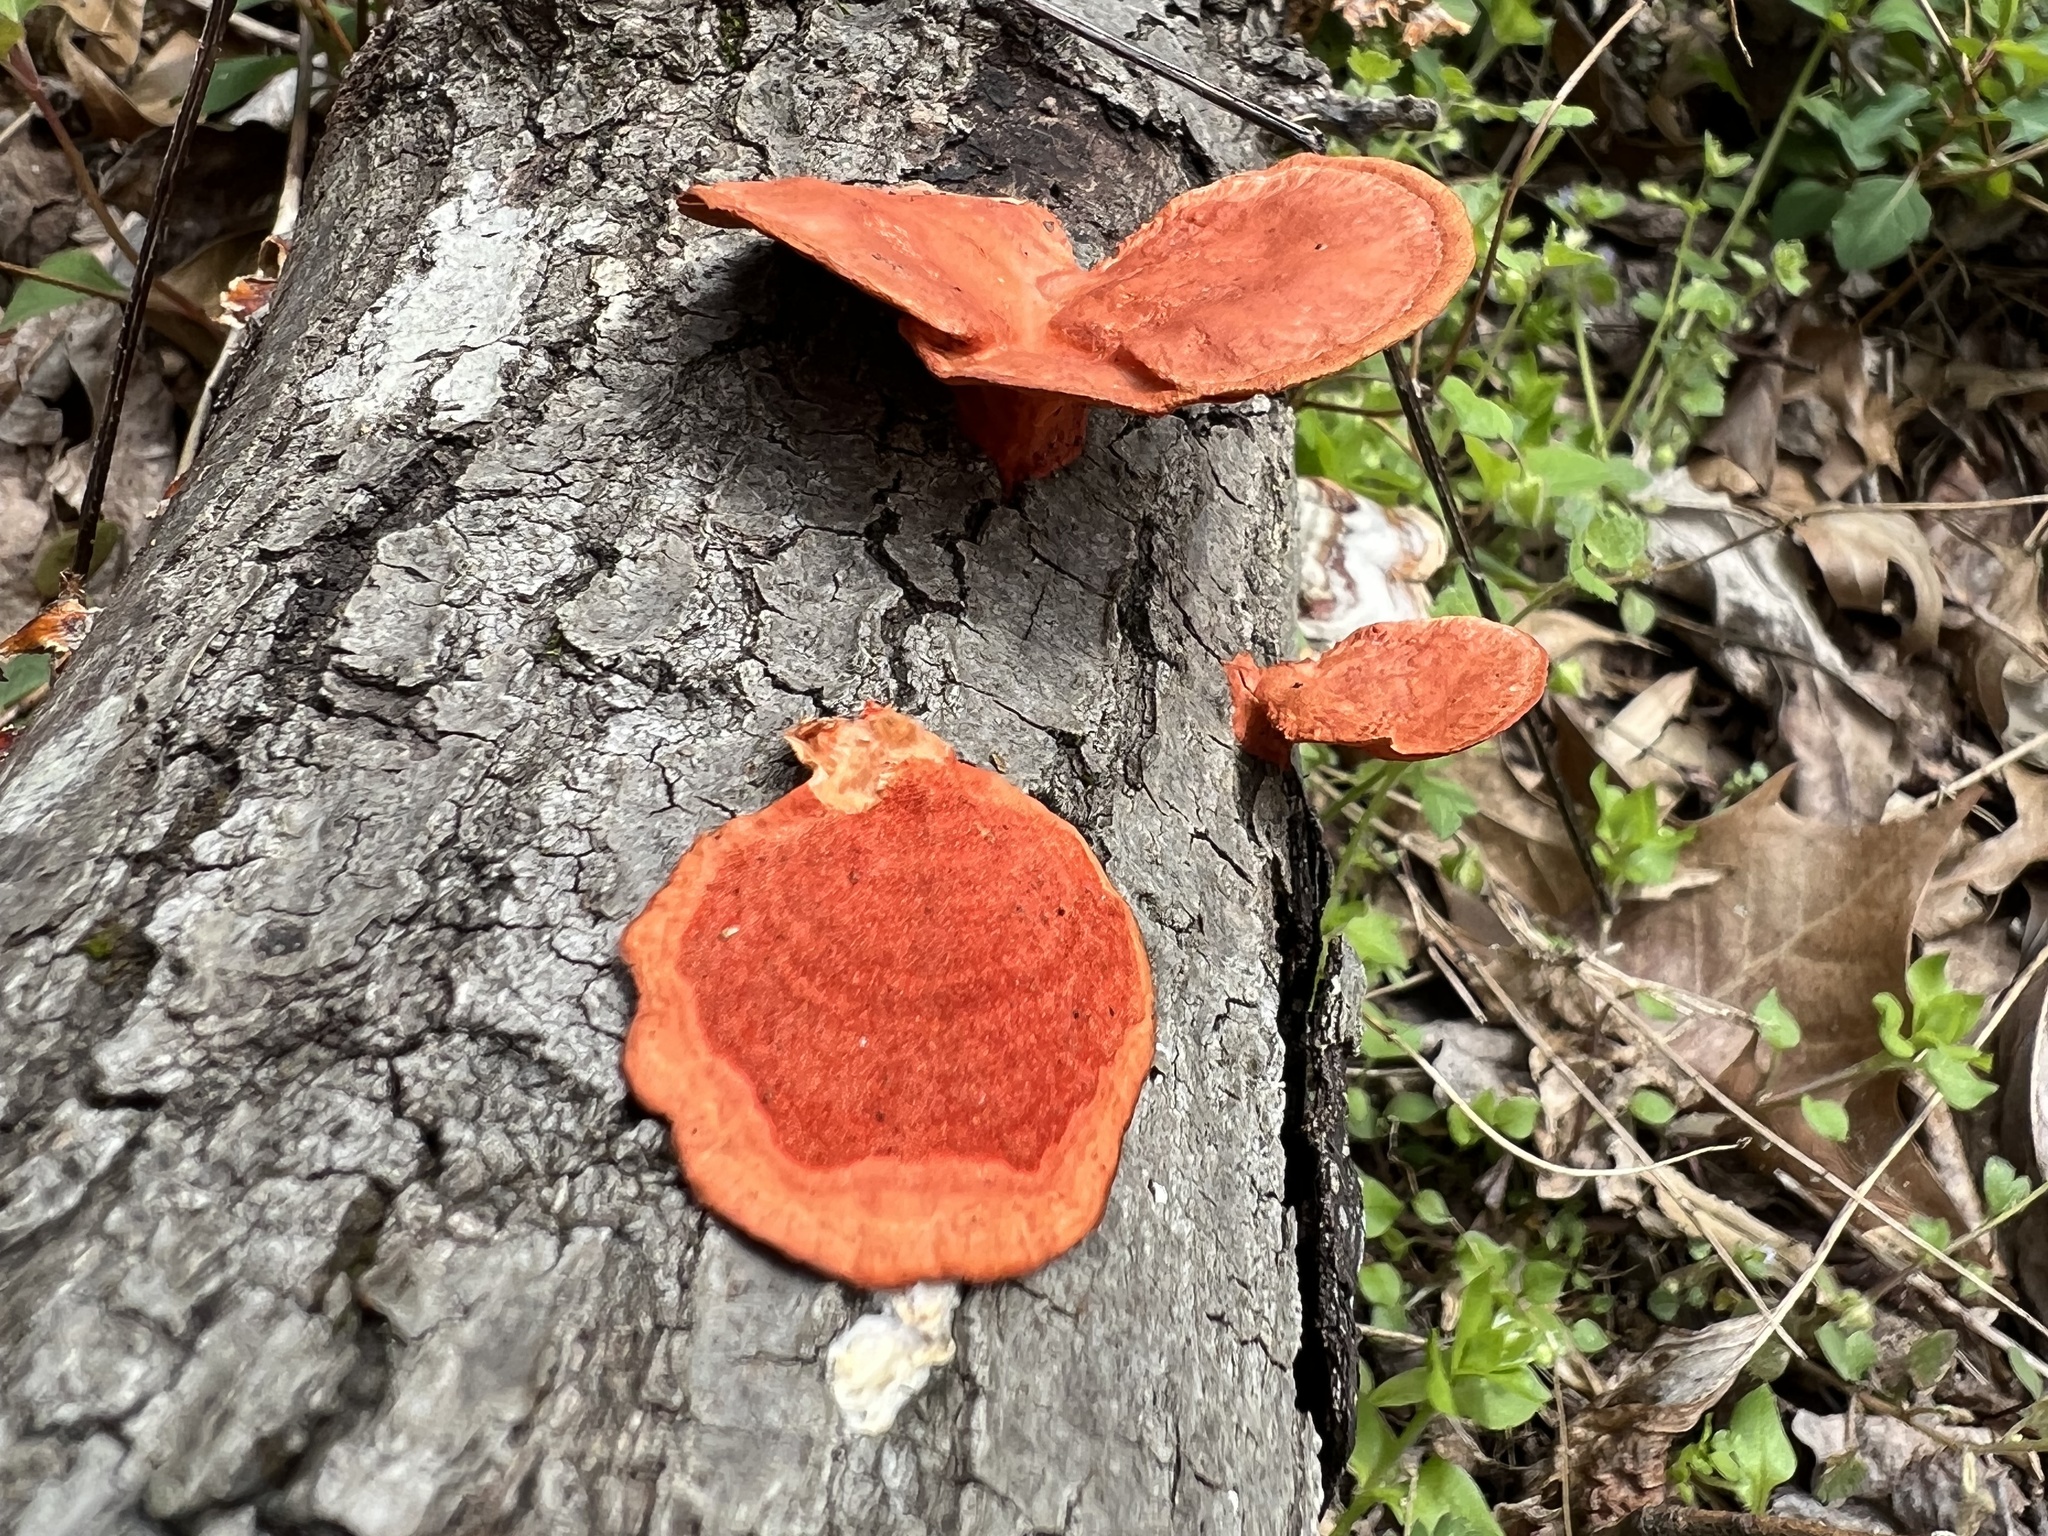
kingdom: Fungi
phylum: Basidiomycota
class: Agaricomycetes
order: Polyporales
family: Polyporaceae
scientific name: Polyporaceae
